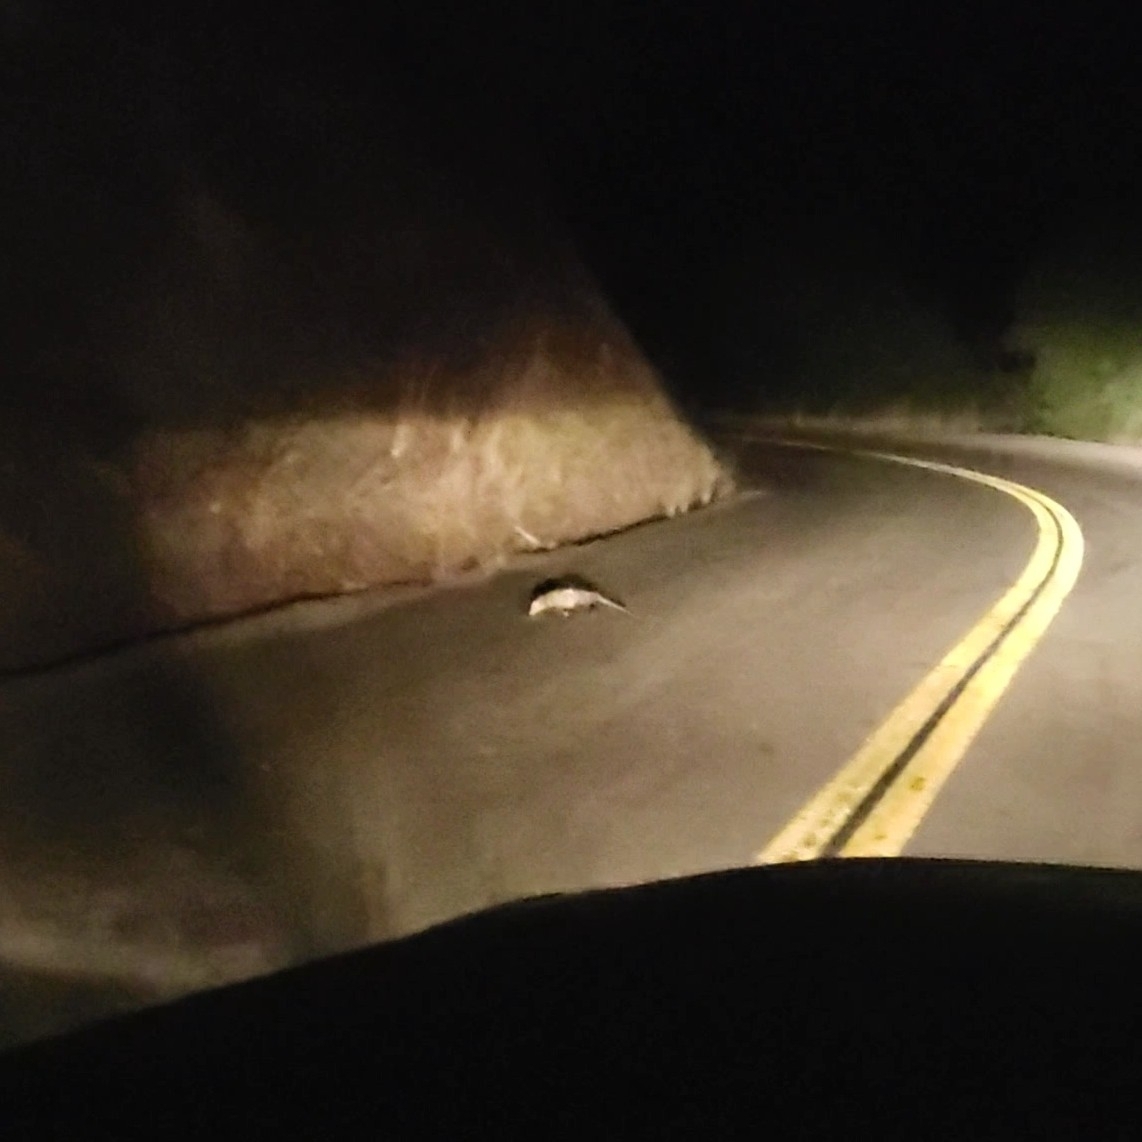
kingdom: Animalia
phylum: Chordata
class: Mammalia
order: Didelphimorphia
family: Didelphidae
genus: Didelphis
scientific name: Didelphis virginiana
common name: Virginia opossum
